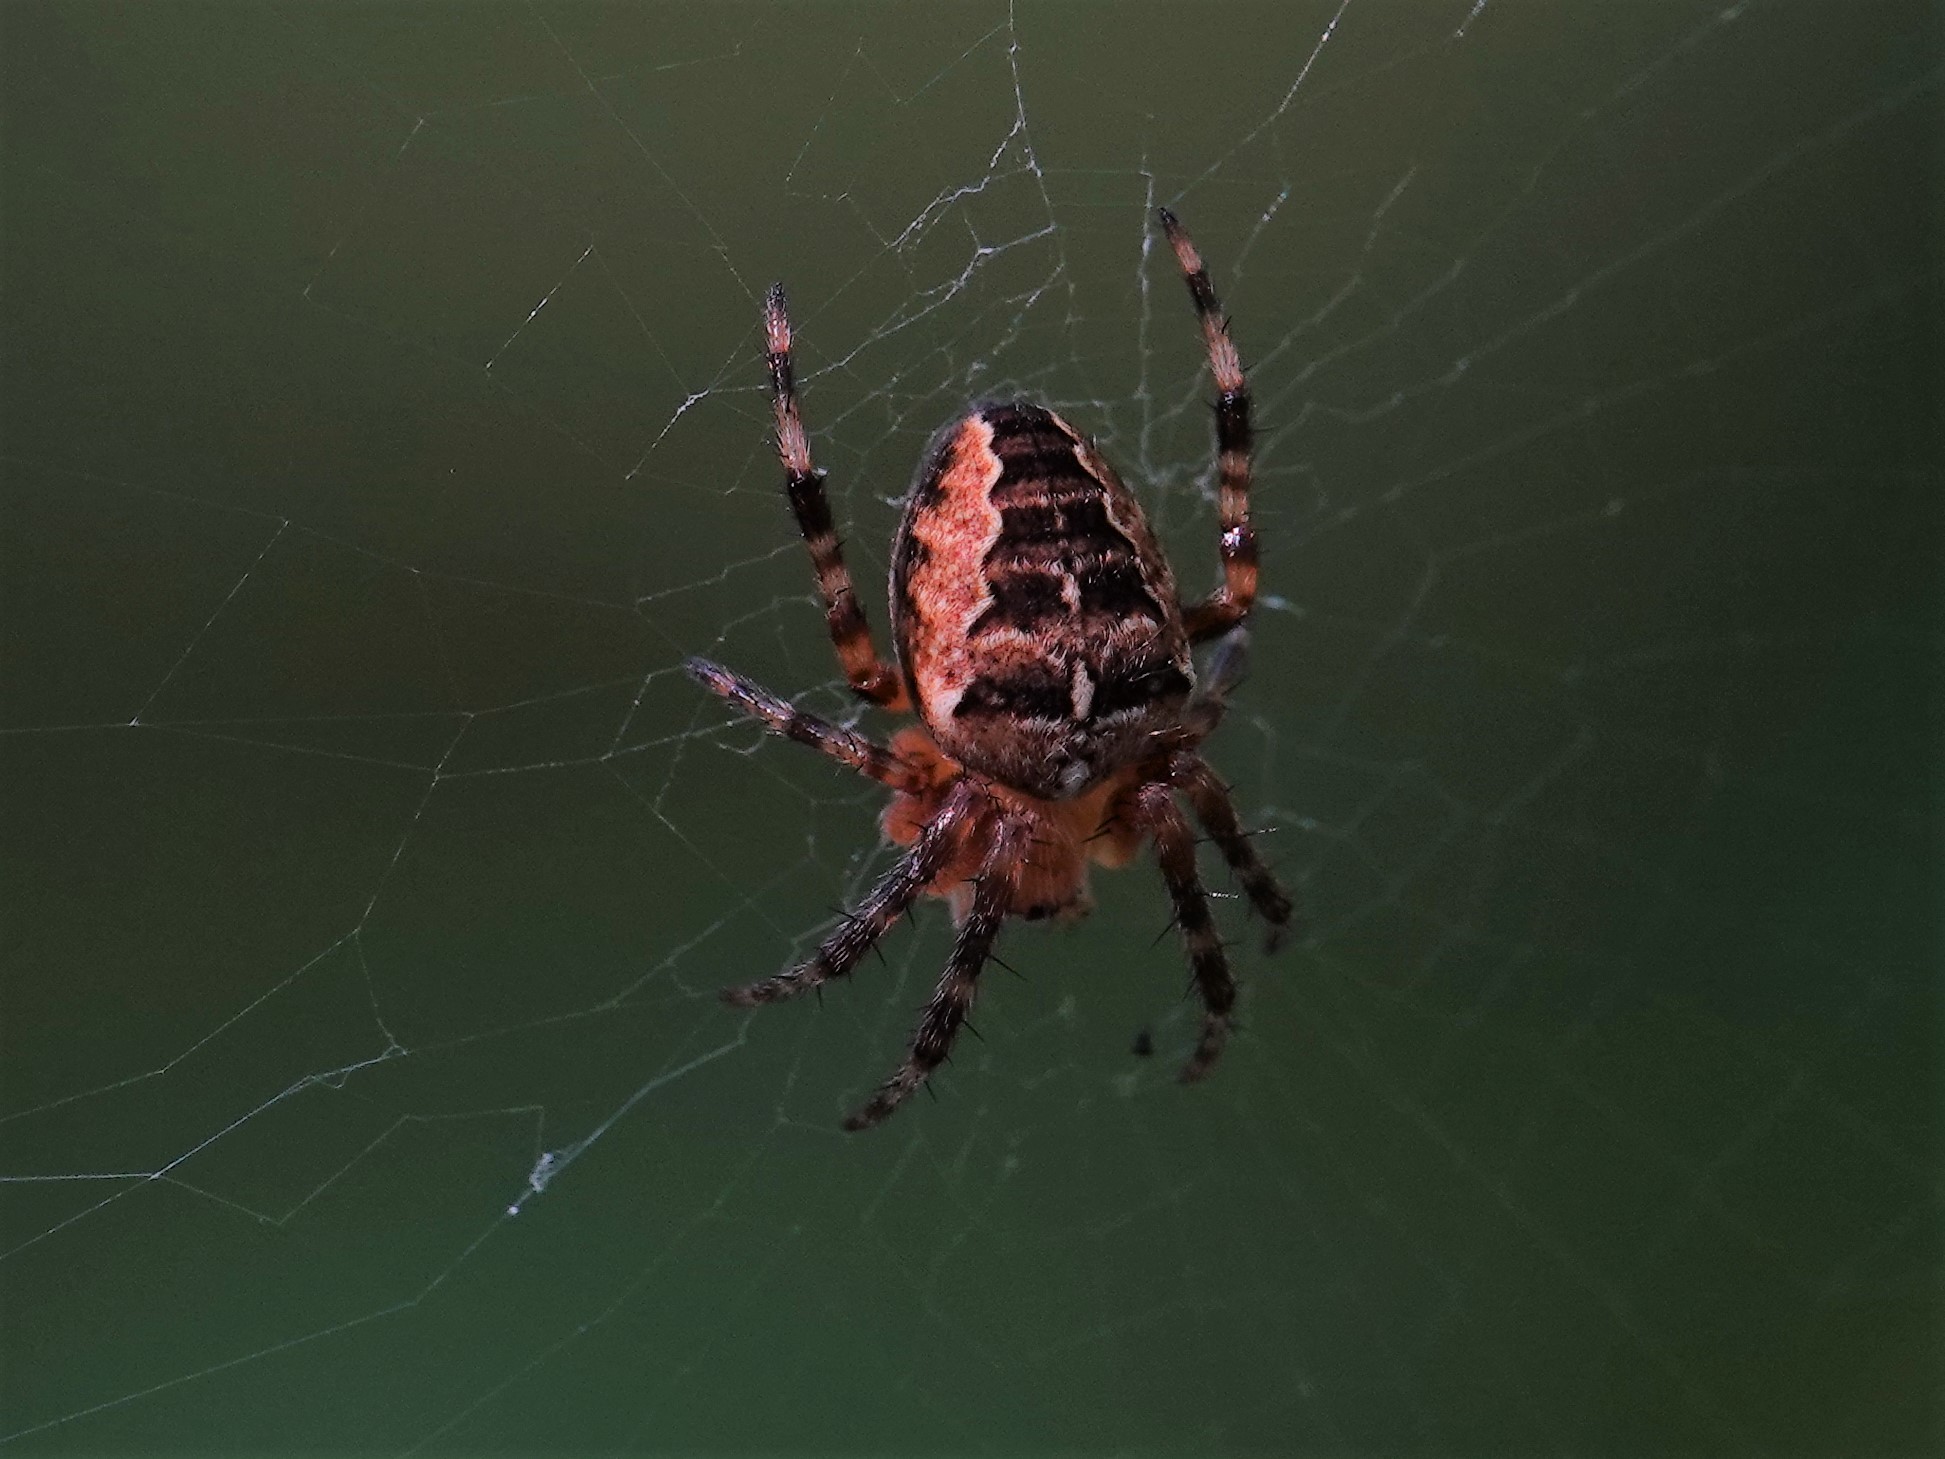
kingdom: Animalia
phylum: Arthropoda
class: Arachnida
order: Araneae
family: Araneidae
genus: Araneus
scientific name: Araneus diadematus
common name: Cross orbweaver
